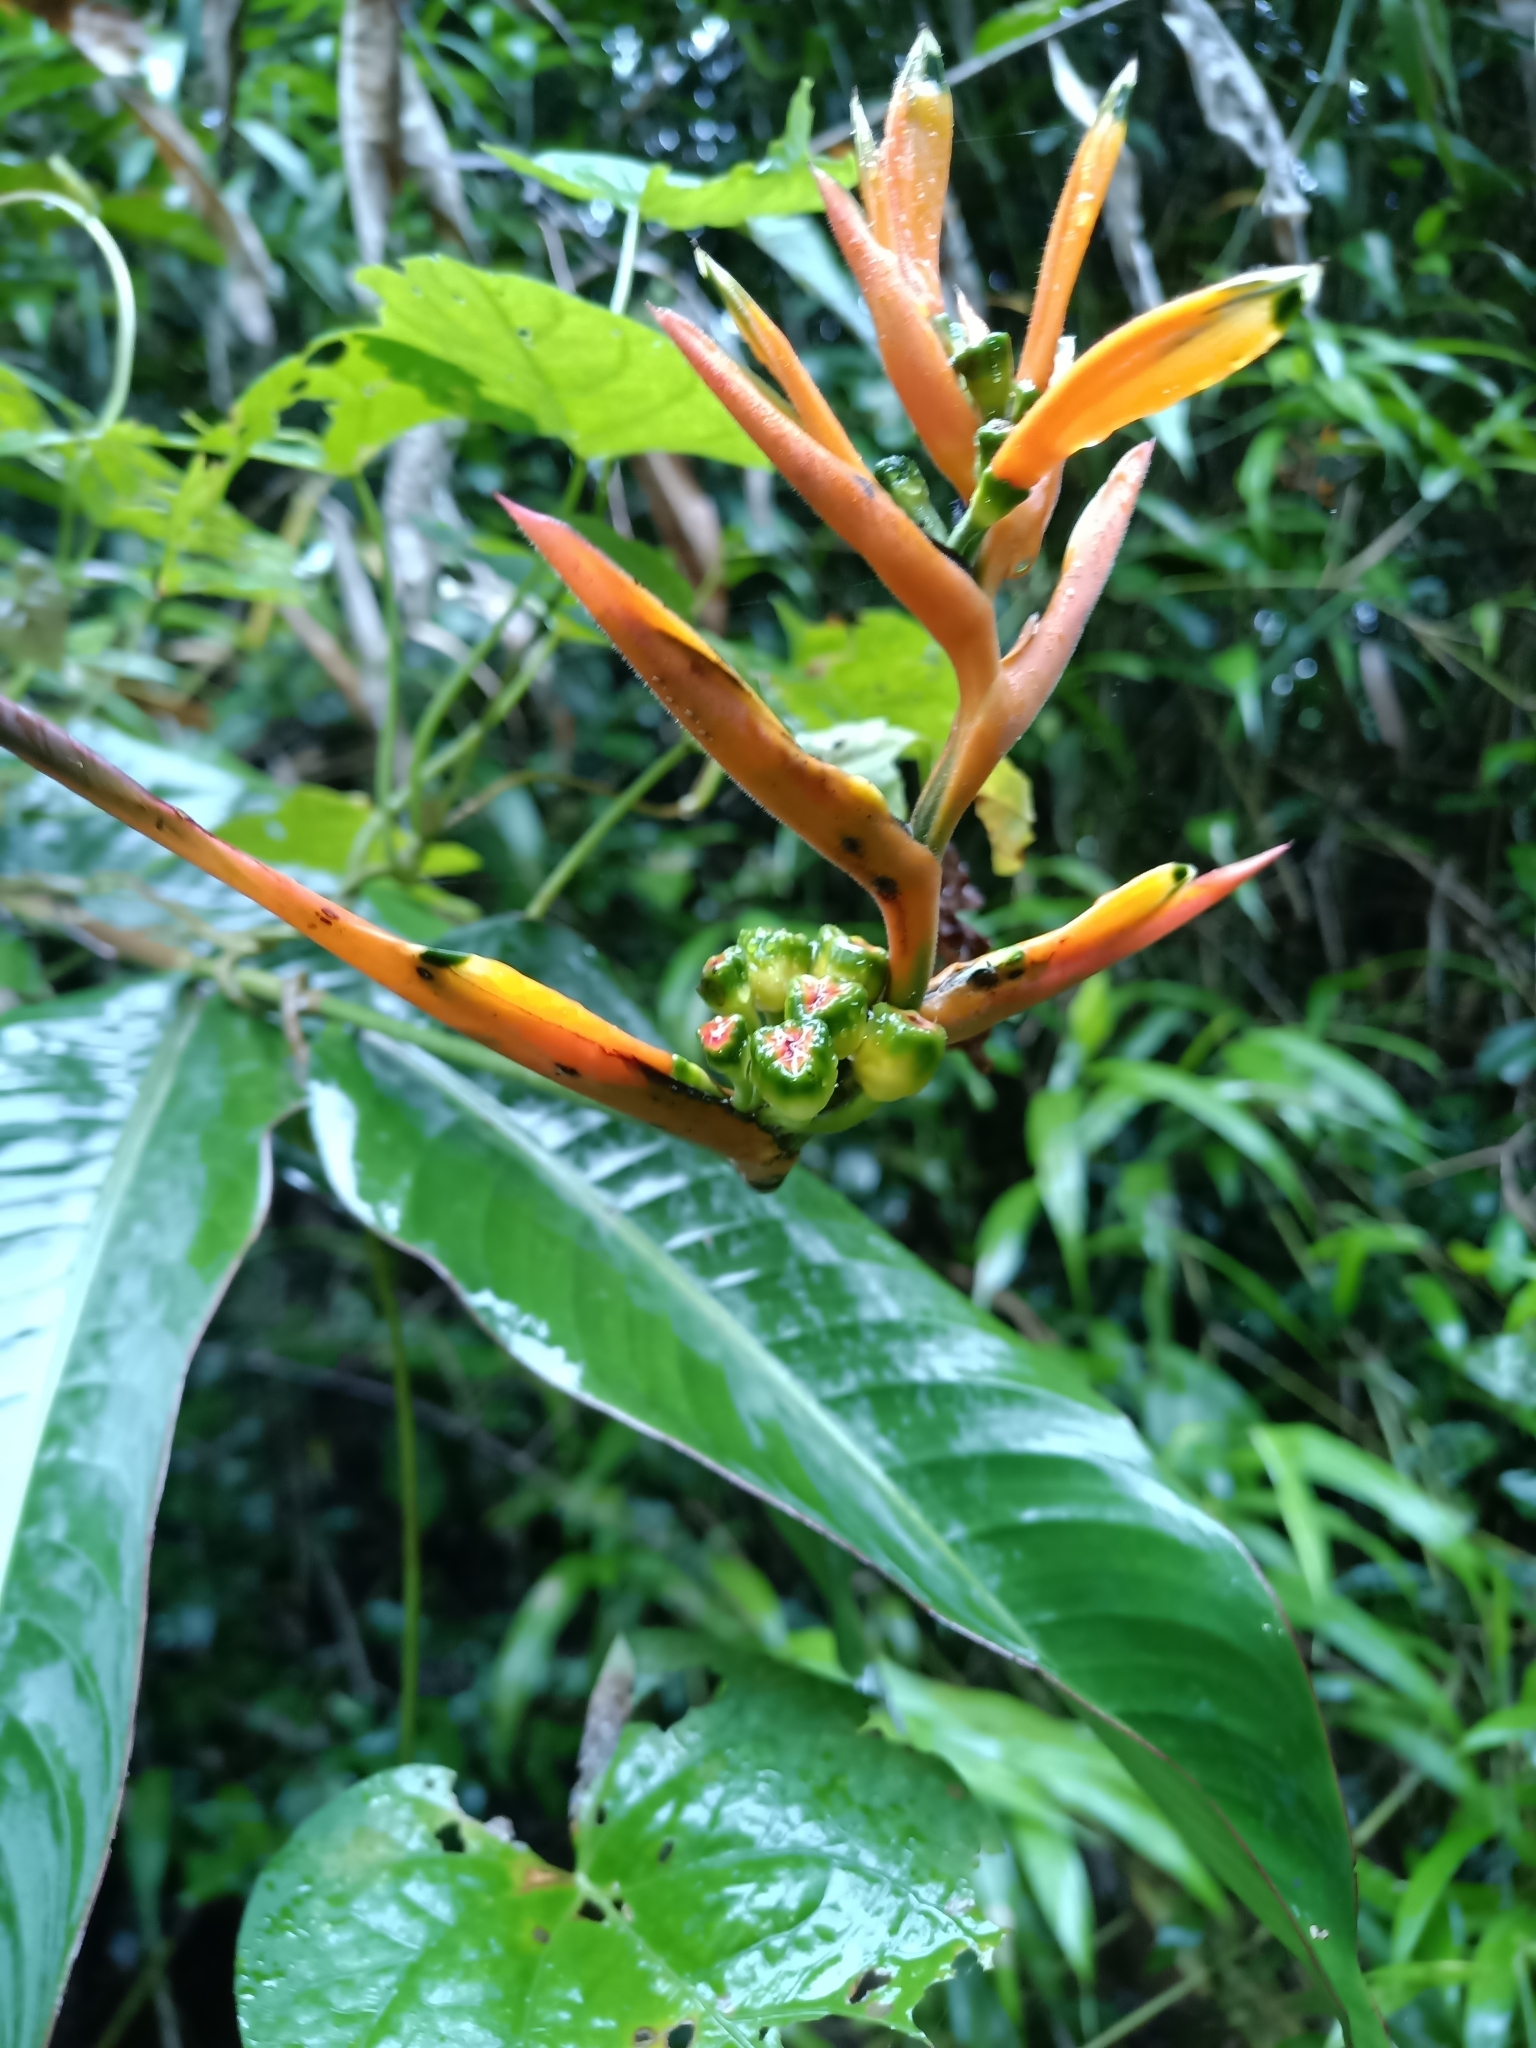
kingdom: Plantae
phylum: Tracheophyta
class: Liliopsida
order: Zingiberales
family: Heliconiaceae
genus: Heliconia
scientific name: Heliconia hirsuta
